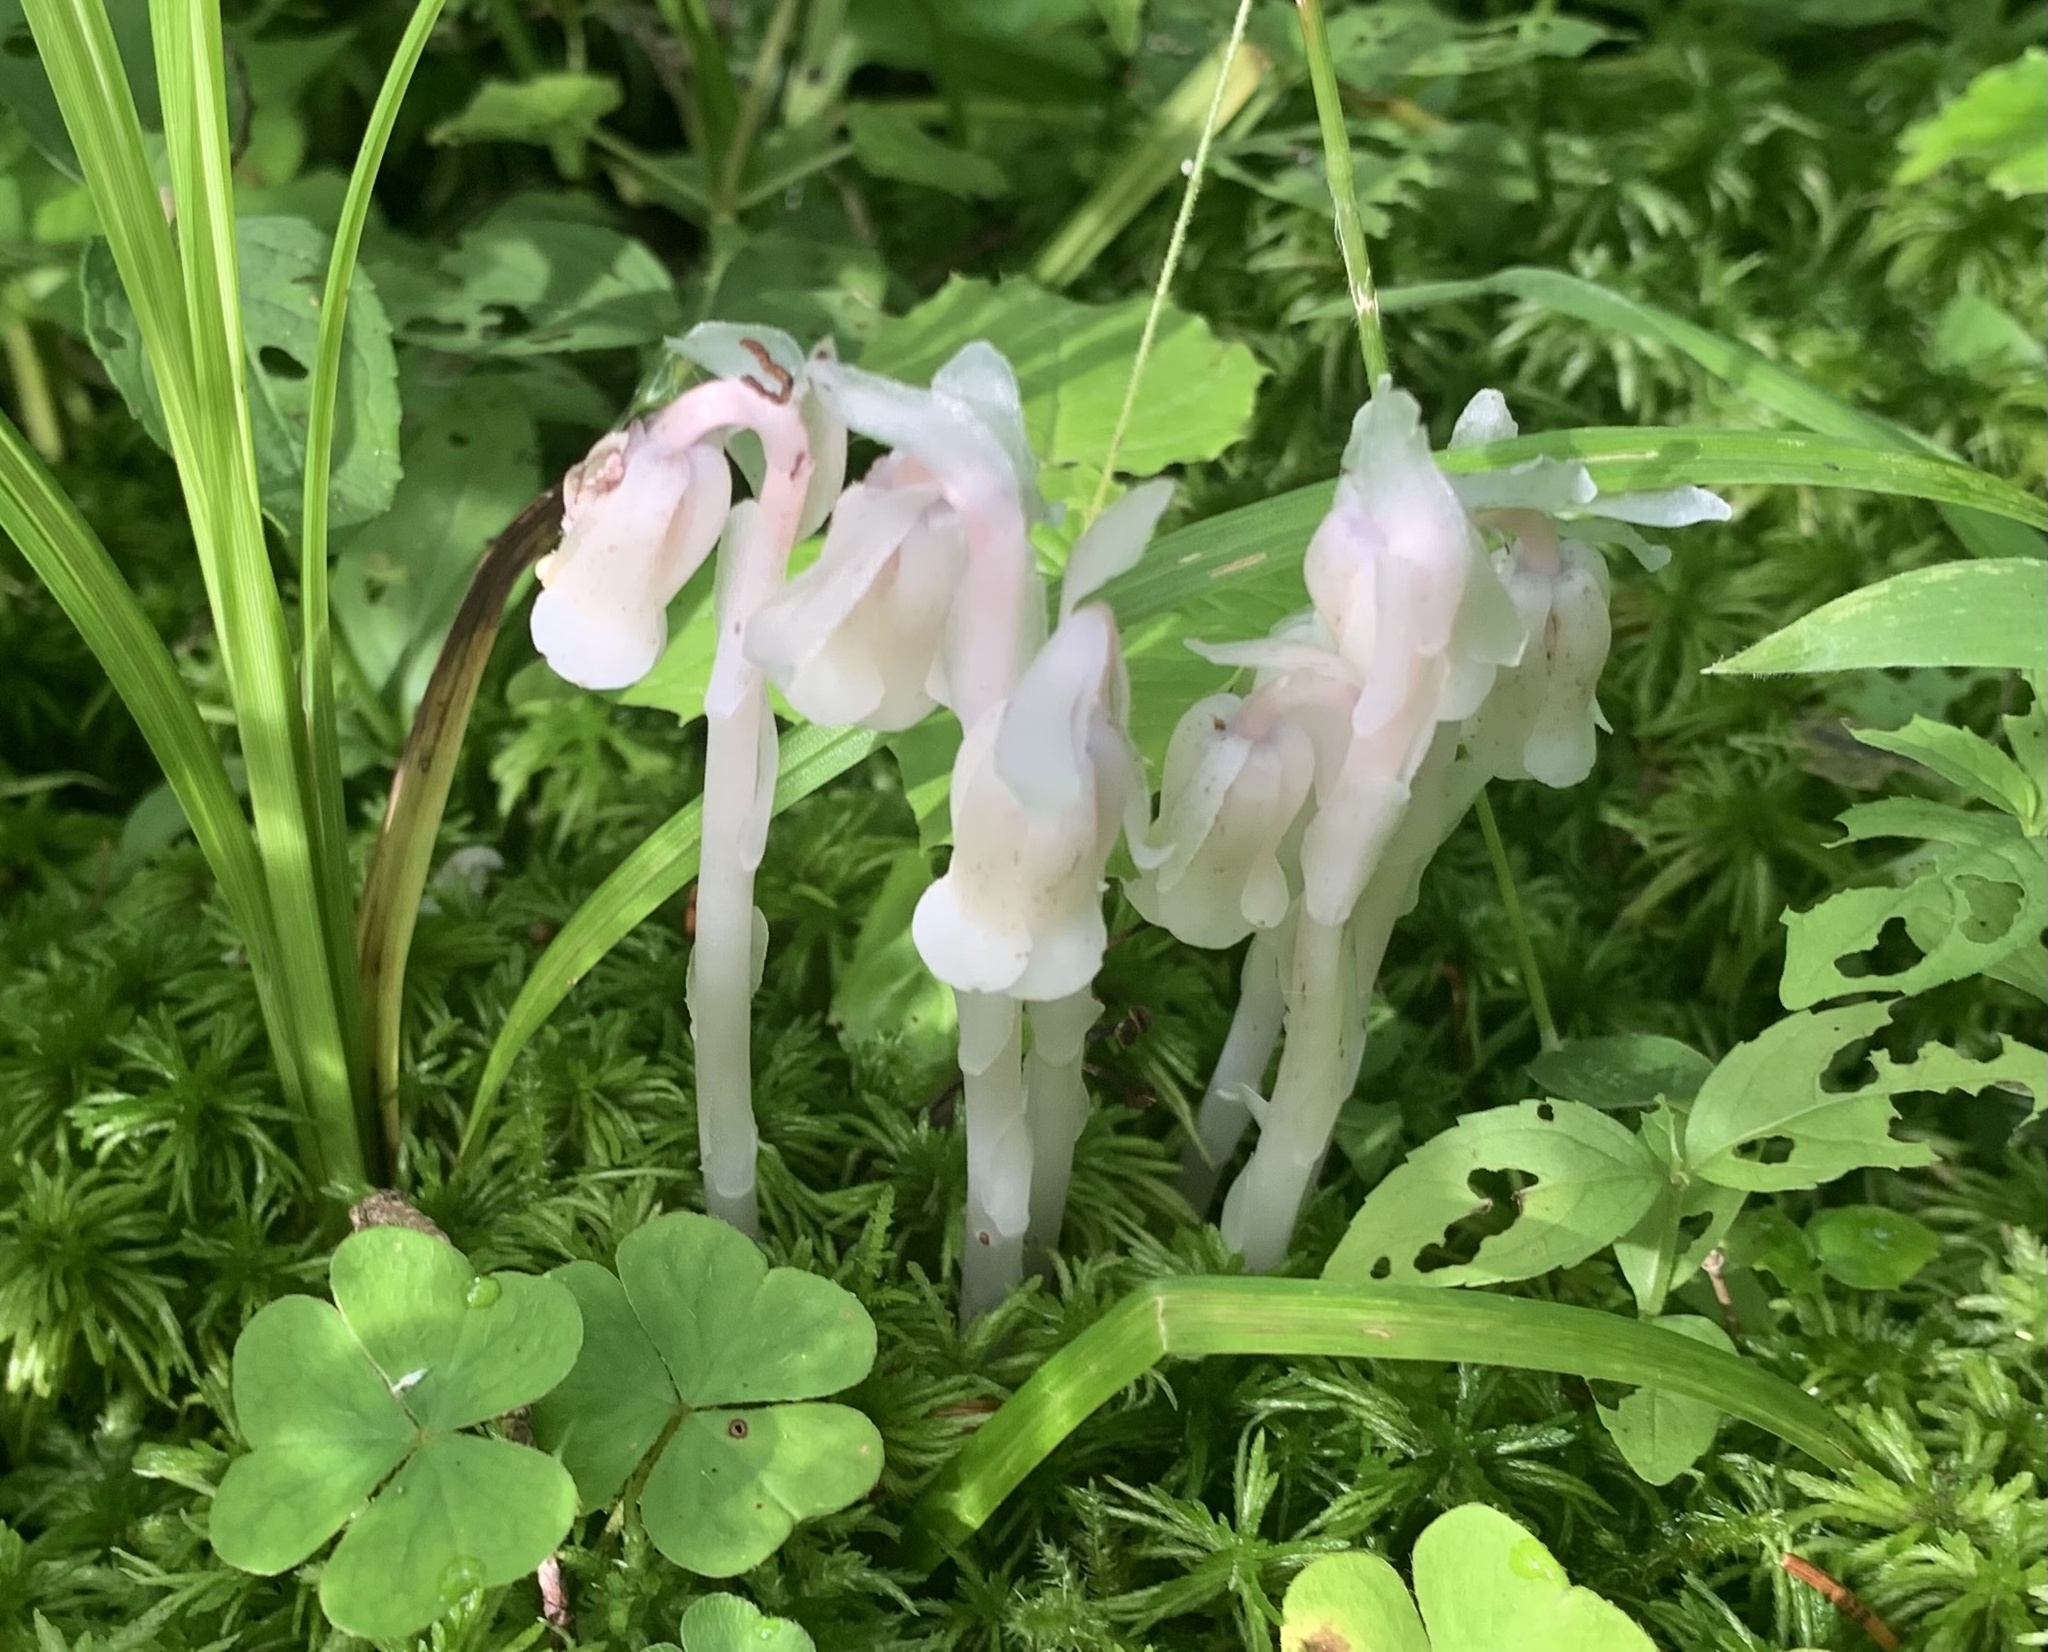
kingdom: Plantae
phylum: Tracheophyta
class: Magnoliopsida
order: Ericales
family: Ericaceae
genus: Monotropa
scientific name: Monotropa uniflora
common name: Convulsion root
